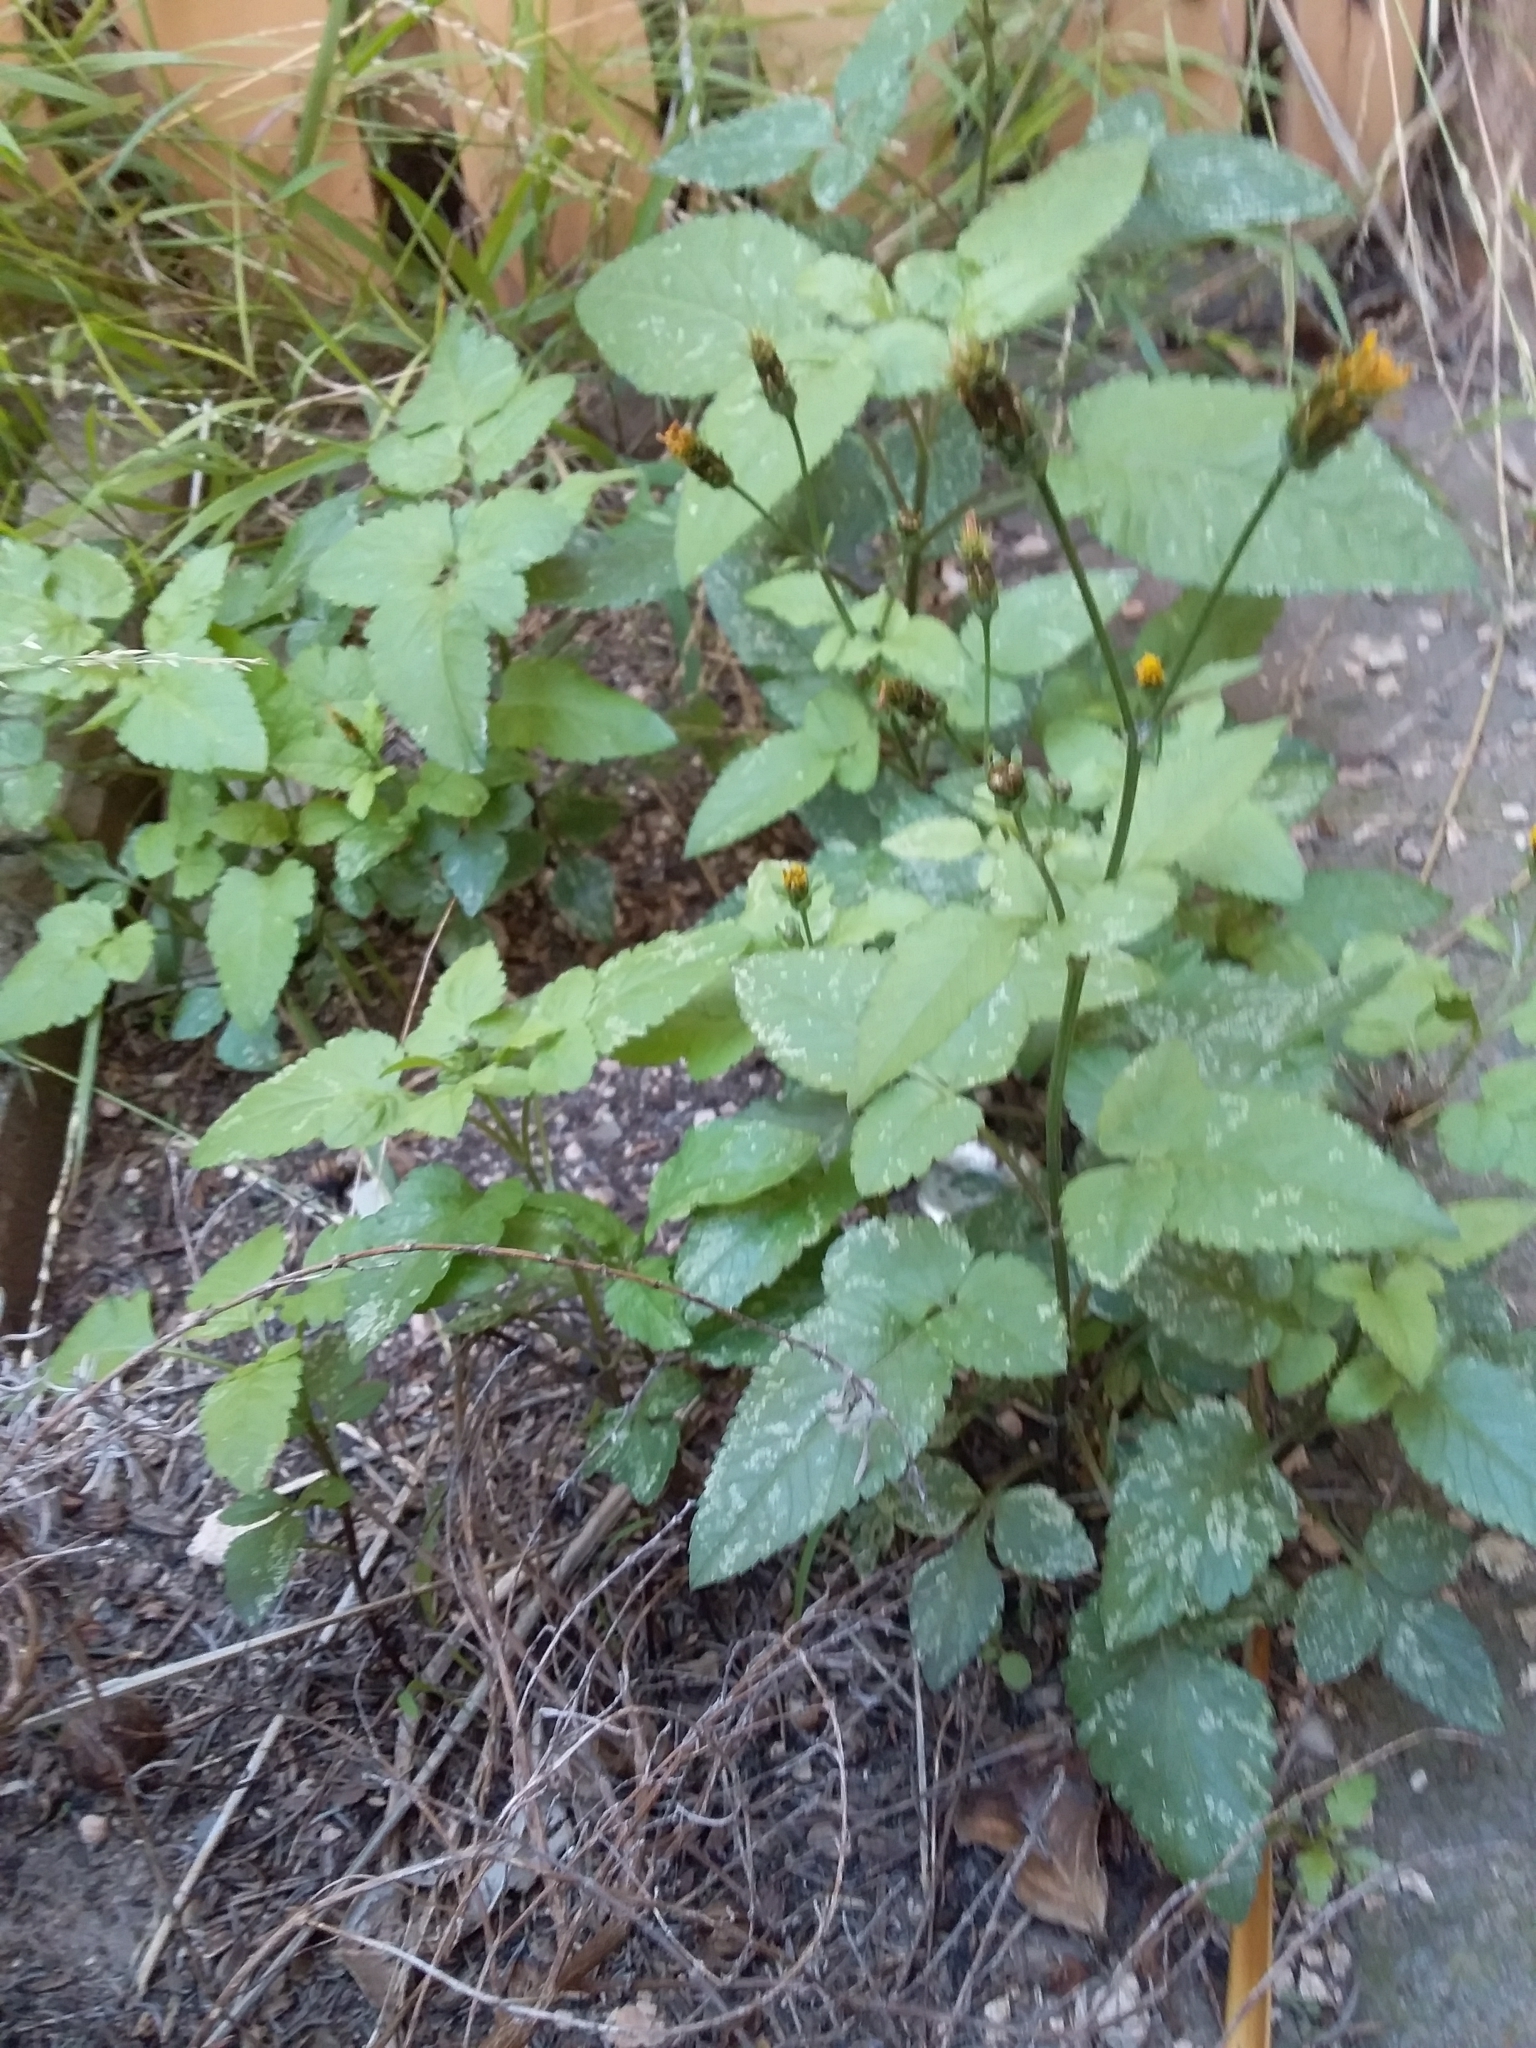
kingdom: Plantae
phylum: Tracheophyta
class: Magnoliopsida
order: Asterales
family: Asteraceae
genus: Bidens
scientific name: Bidens pilosa
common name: Black-jack
